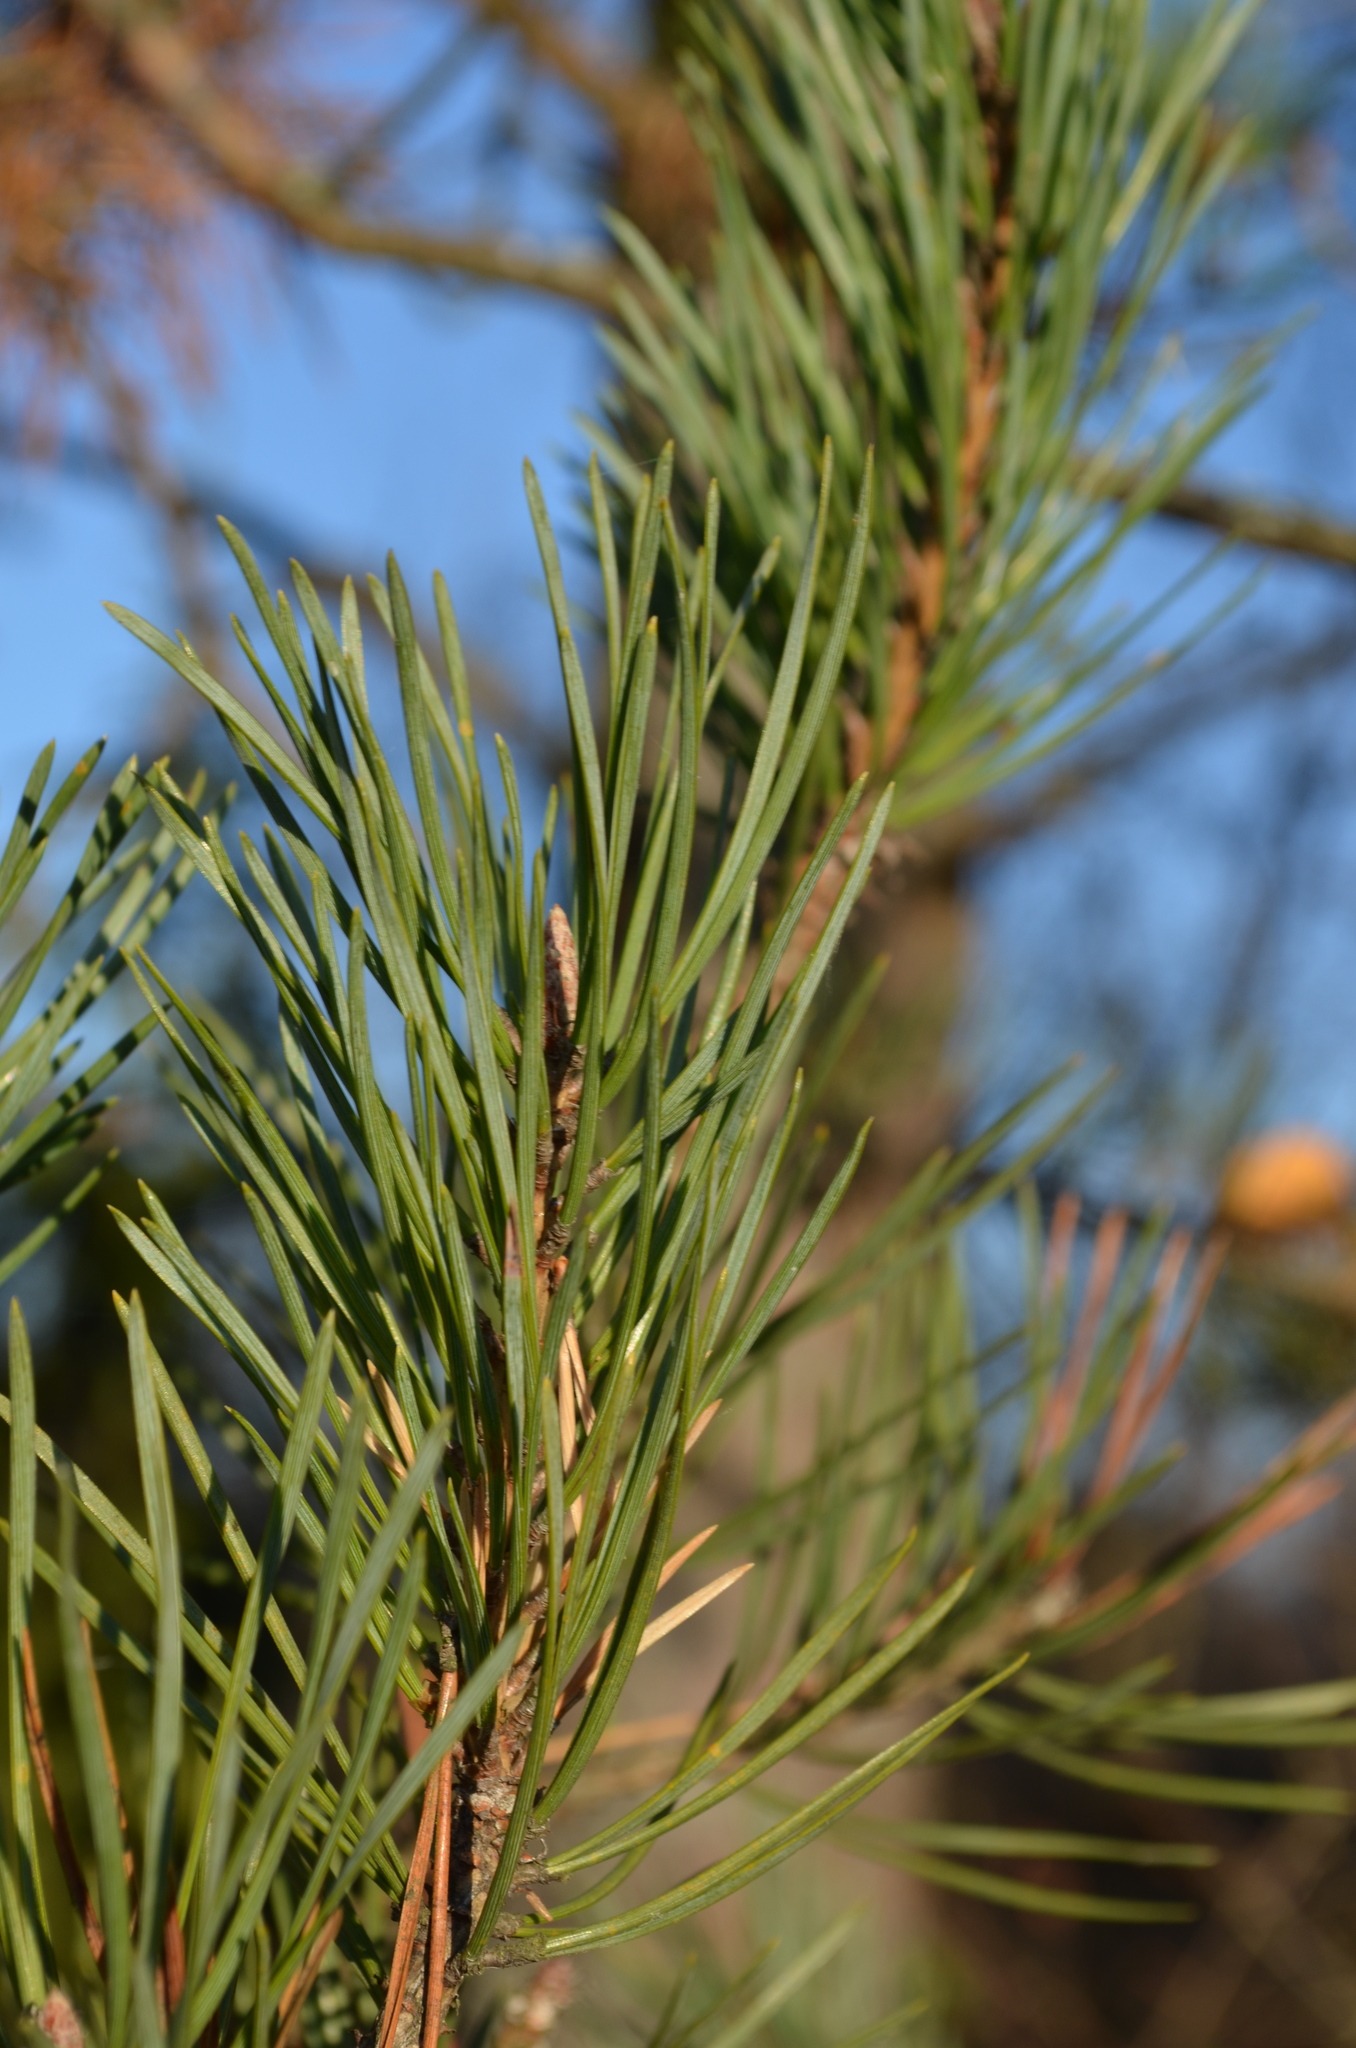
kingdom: Plantae
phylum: Tracheophyta
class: Pinopsida
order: Pinales
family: Pinaceae
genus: Pinus
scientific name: Pinus sylvestris
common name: Scots pine
